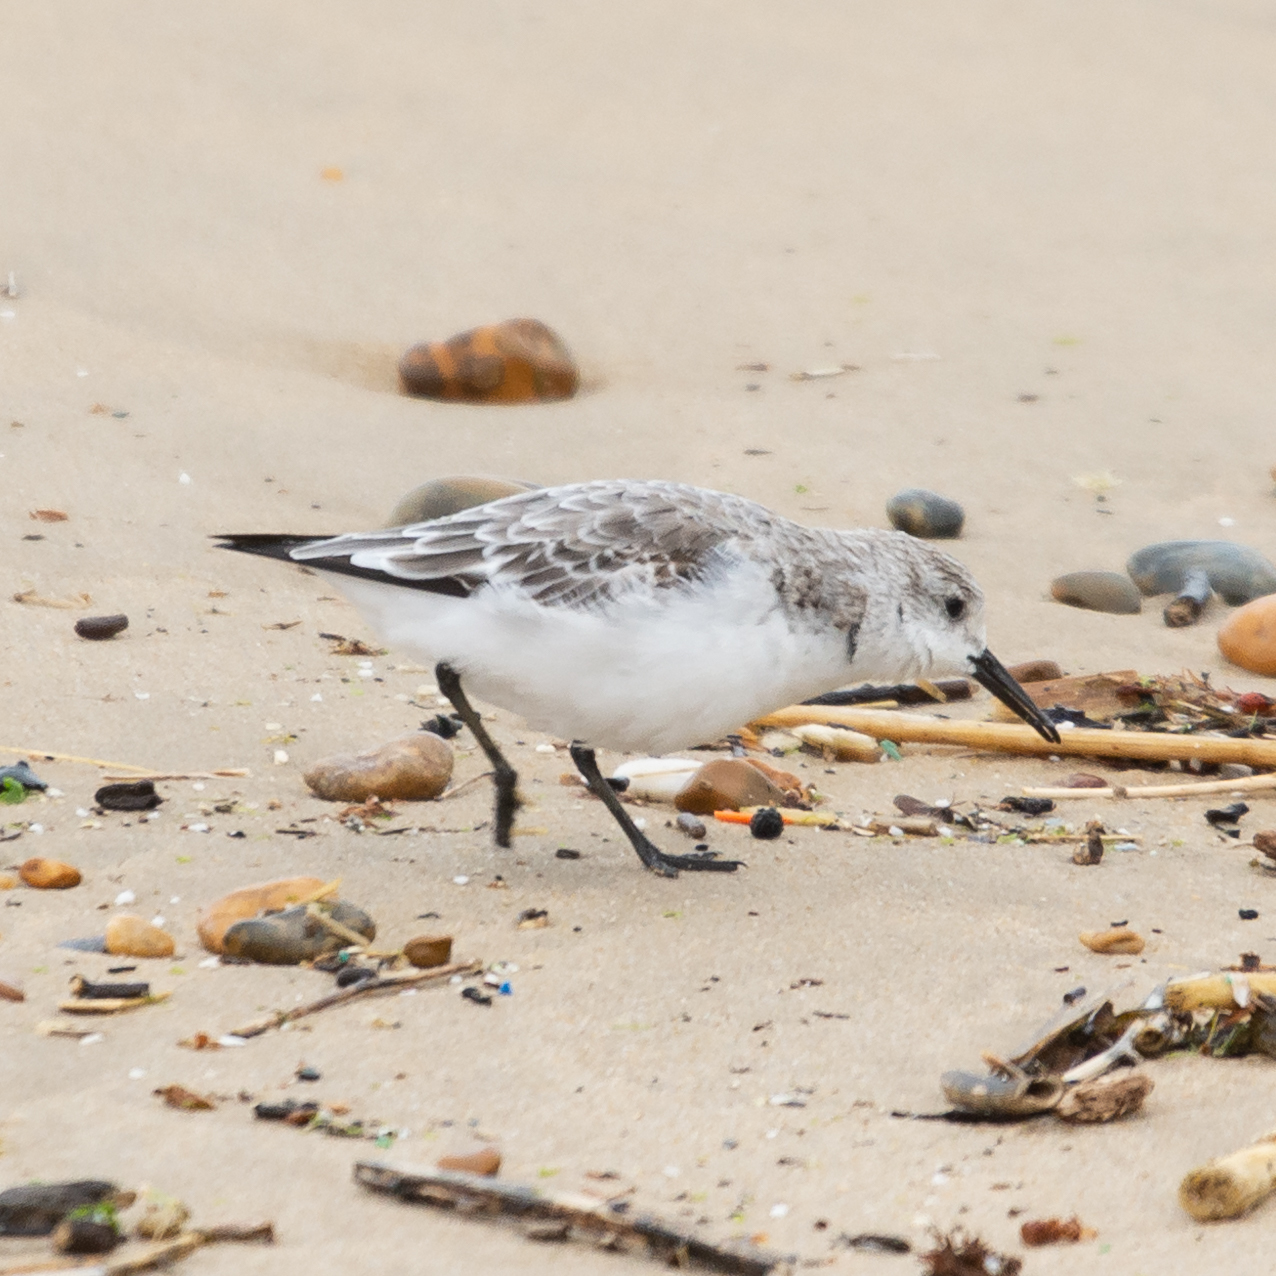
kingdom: Animalia
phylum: Chordata
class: Aves
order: Charadriiformes
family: Scolopacidae
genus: Calidris
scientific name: Calidris alba
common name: Sanderling
